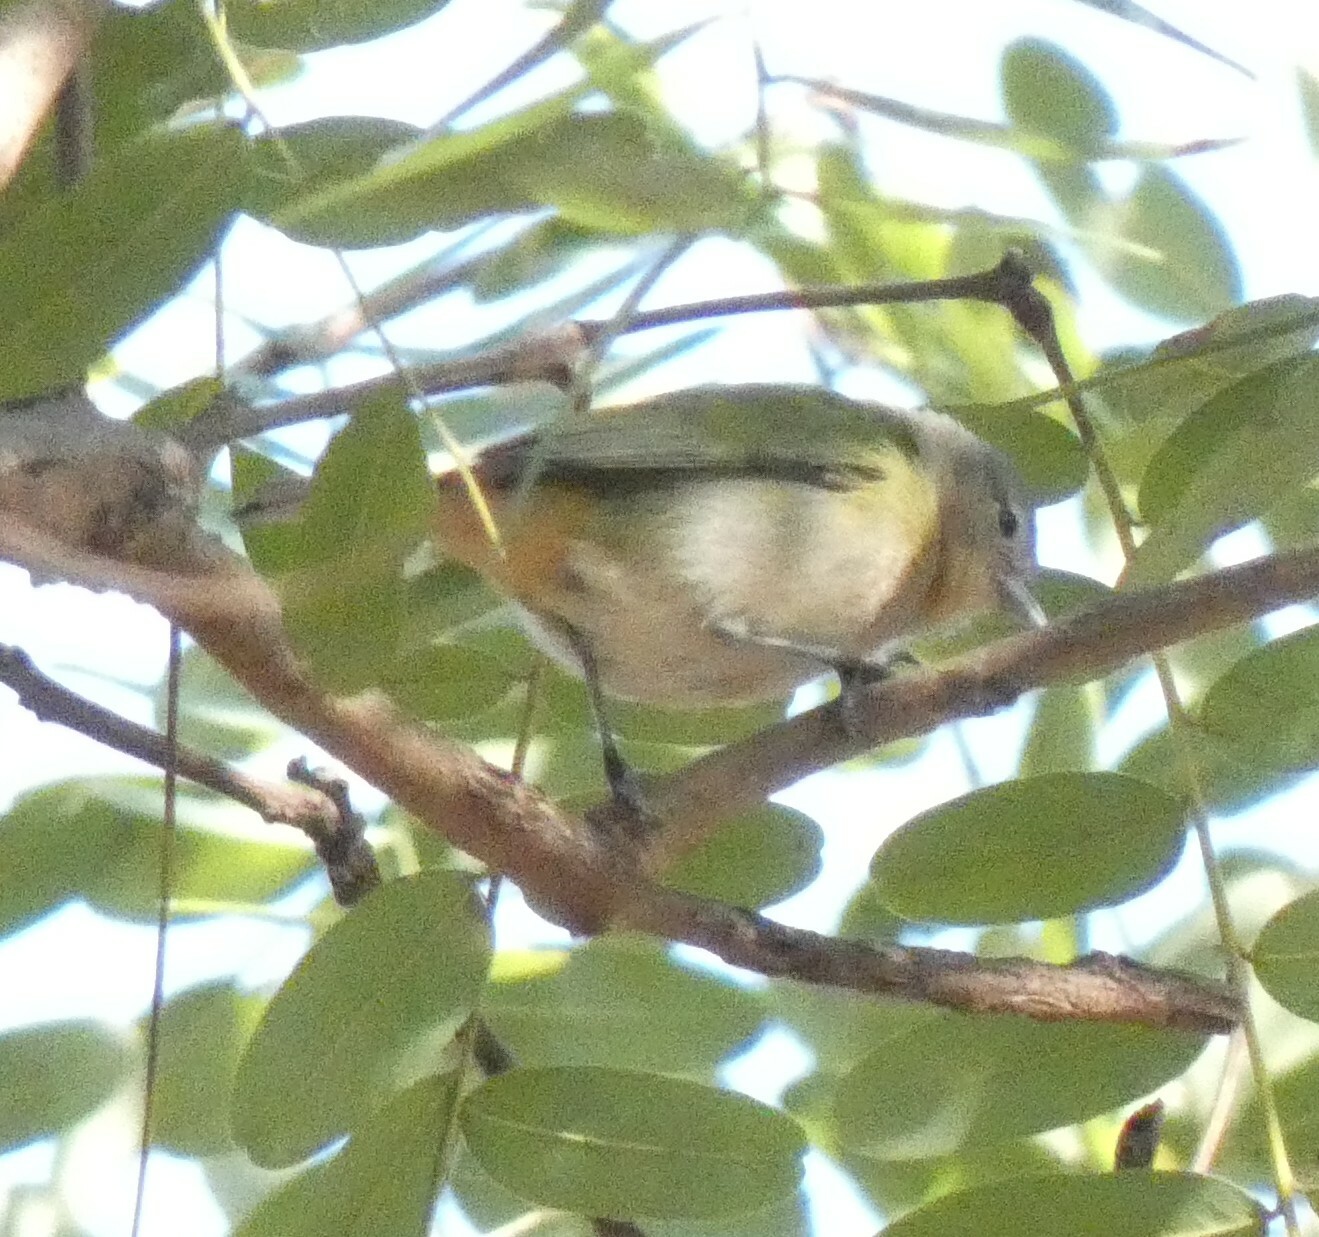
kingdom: Animalia
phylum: Chordata
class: Aves
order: Passeriformes
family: Thraupidae
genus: Conirostrum
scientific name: Conirostrum speciosum
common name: Chestnut-vented conebill
